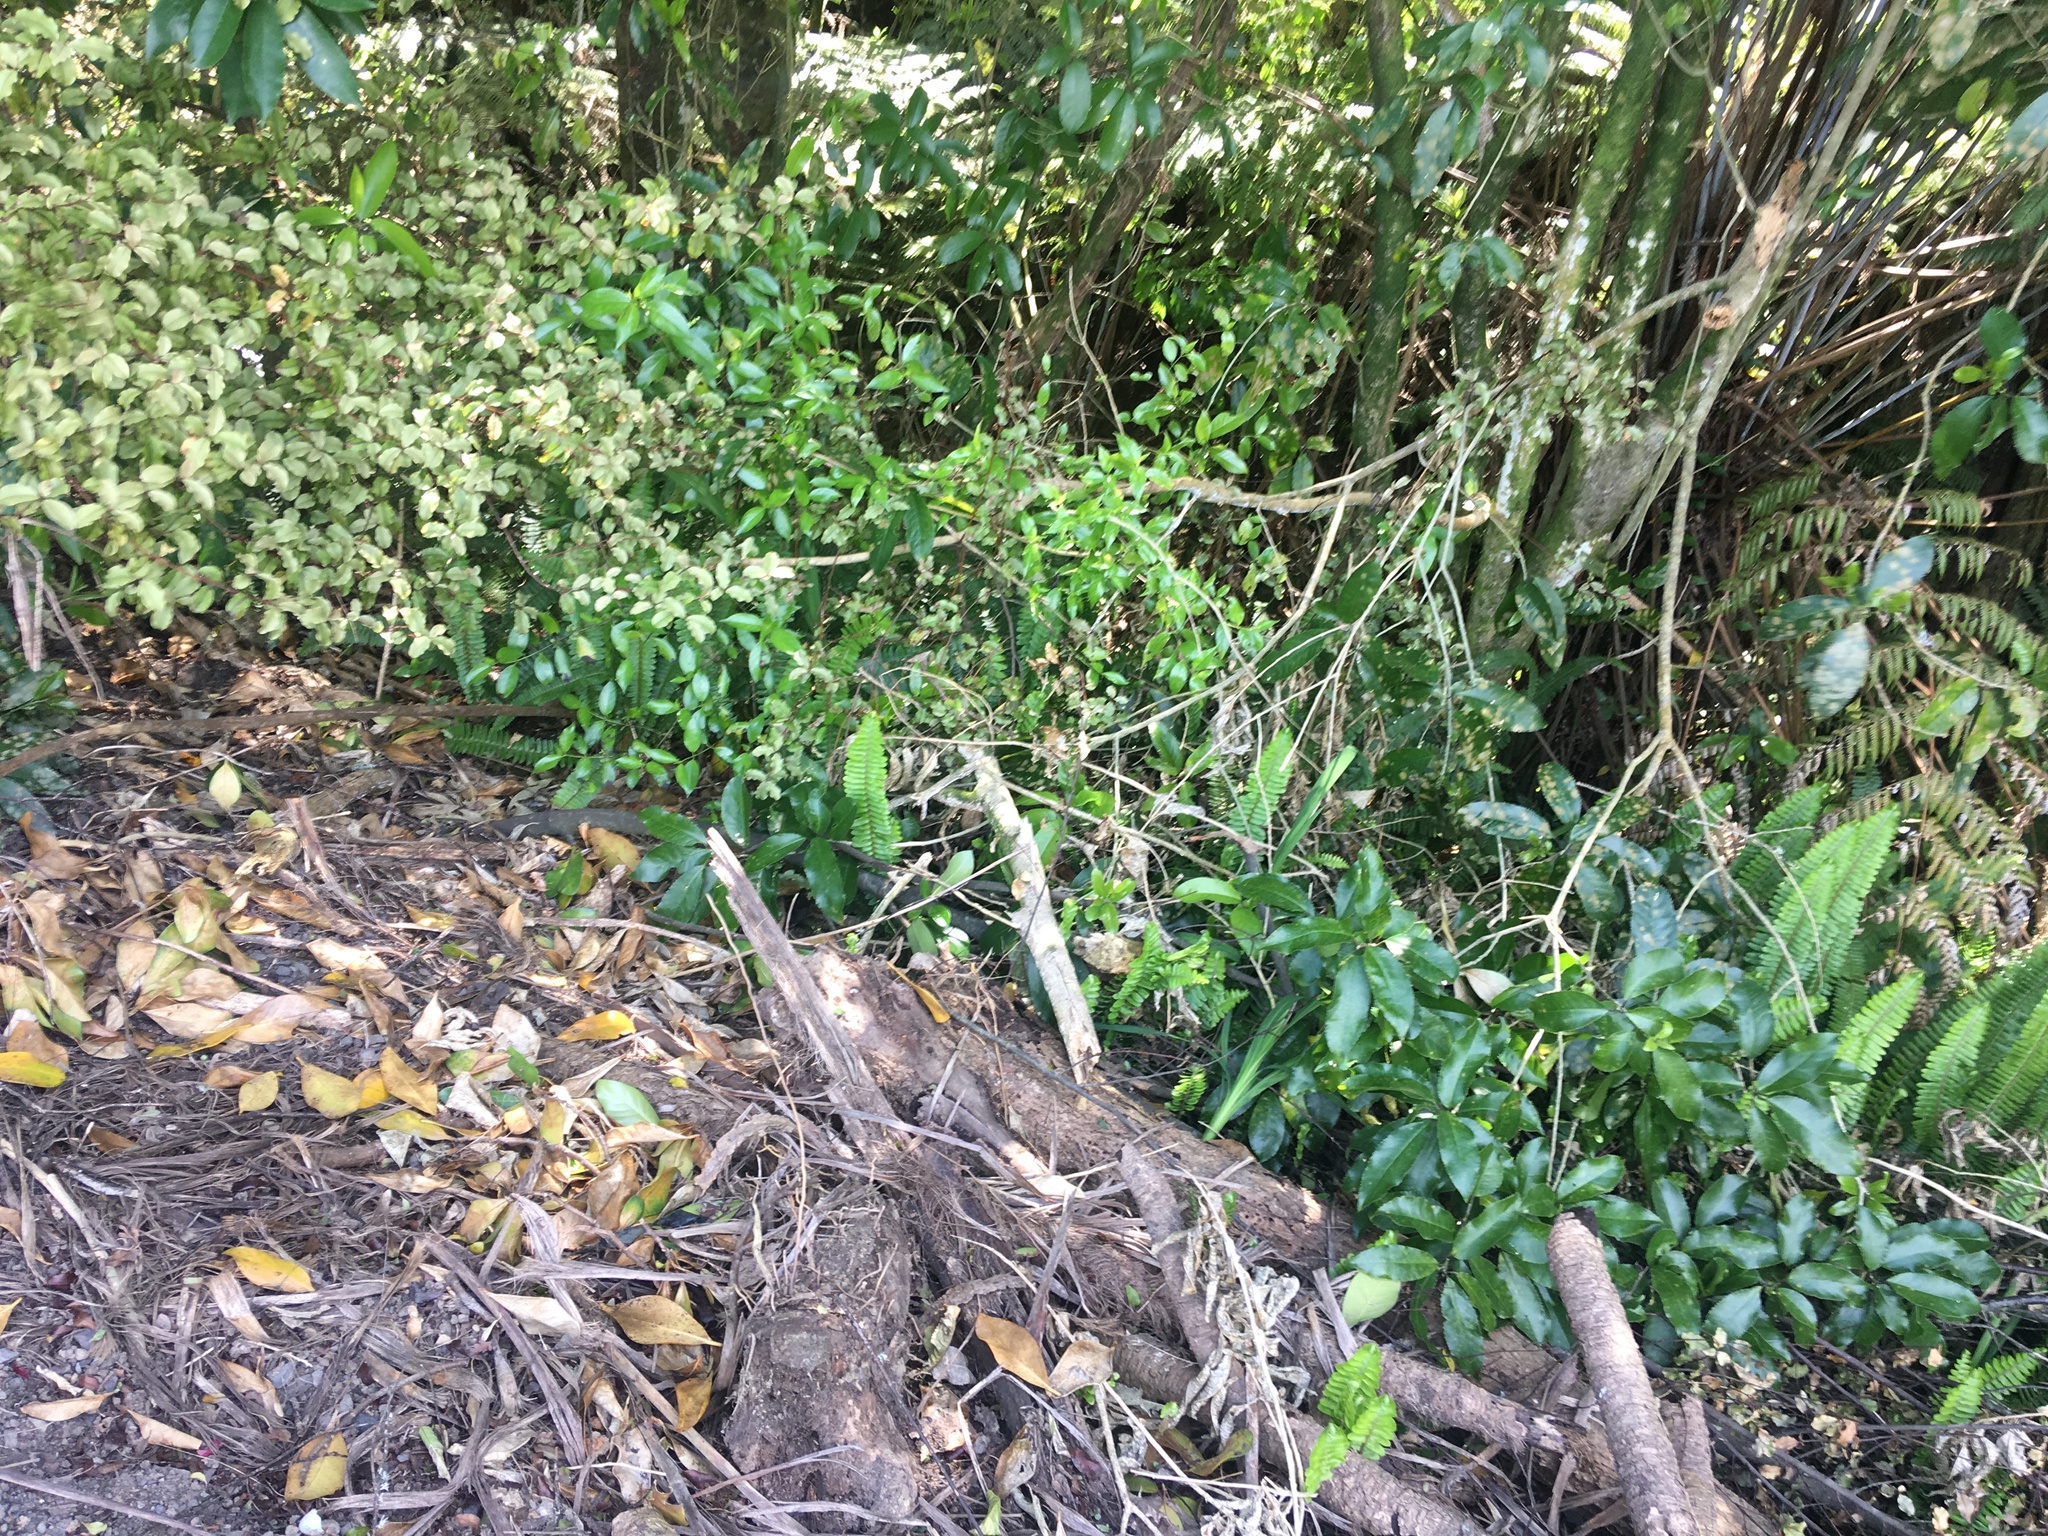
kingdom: Plantae
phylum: Tracheophyta
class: Polypodiopsida
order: Polypodiales
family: Nephrolepidaceae
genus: Nephrolepis
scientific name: Nephrolepis cordifolia
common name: Narrow swordfern
